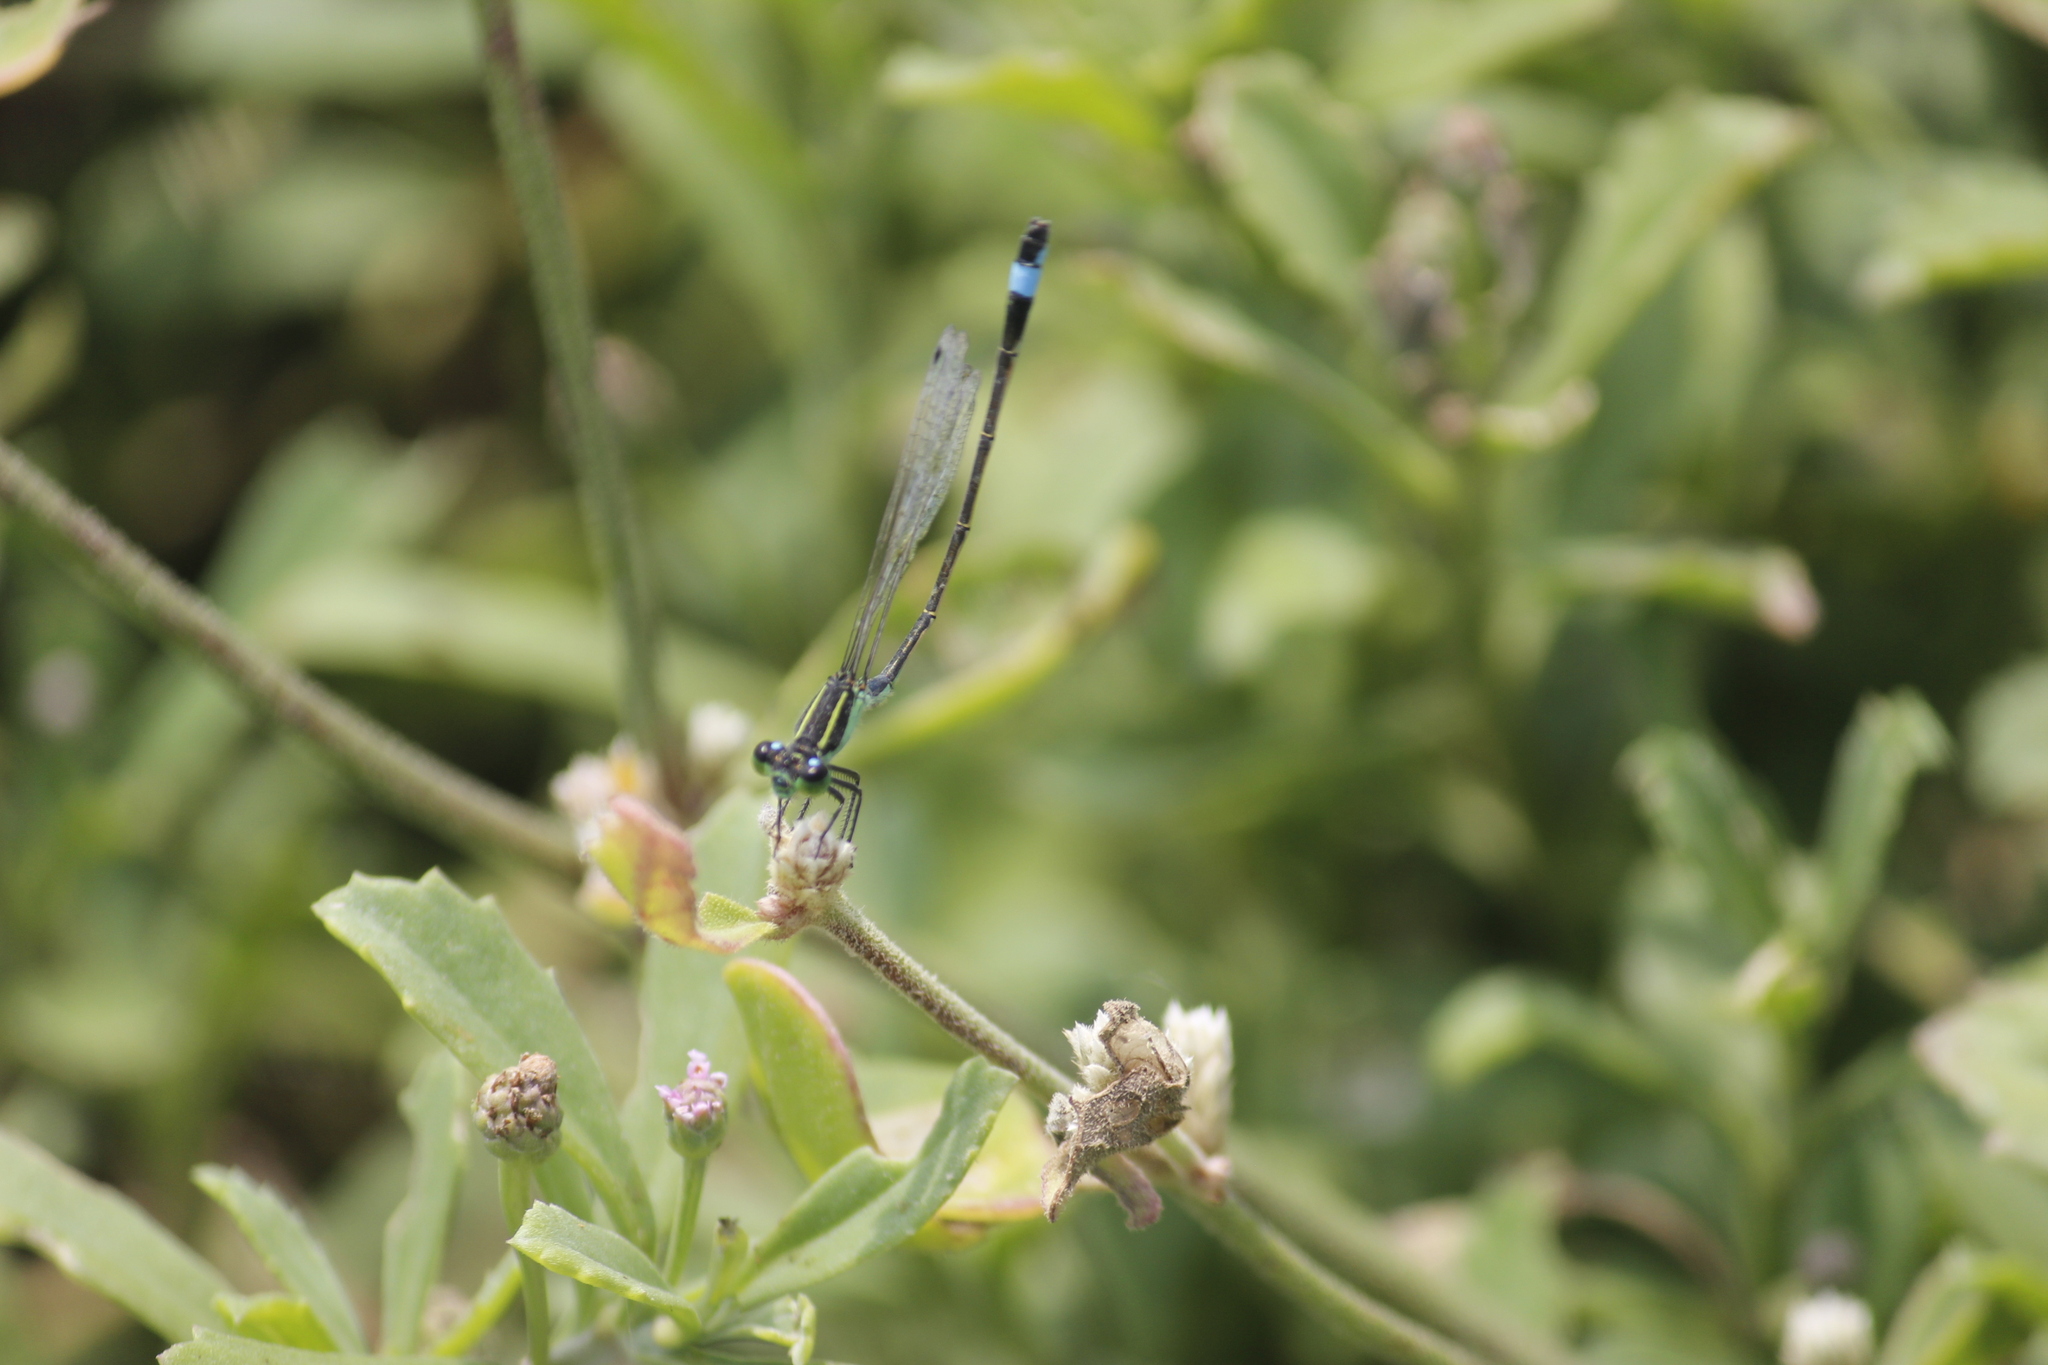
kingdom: Animalia
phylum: Arthropoda
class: Insecta
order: Odonata
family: Coenagrionidae
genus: Ischnura
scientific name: Ischnura ramburii
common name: Rambur's forktail
